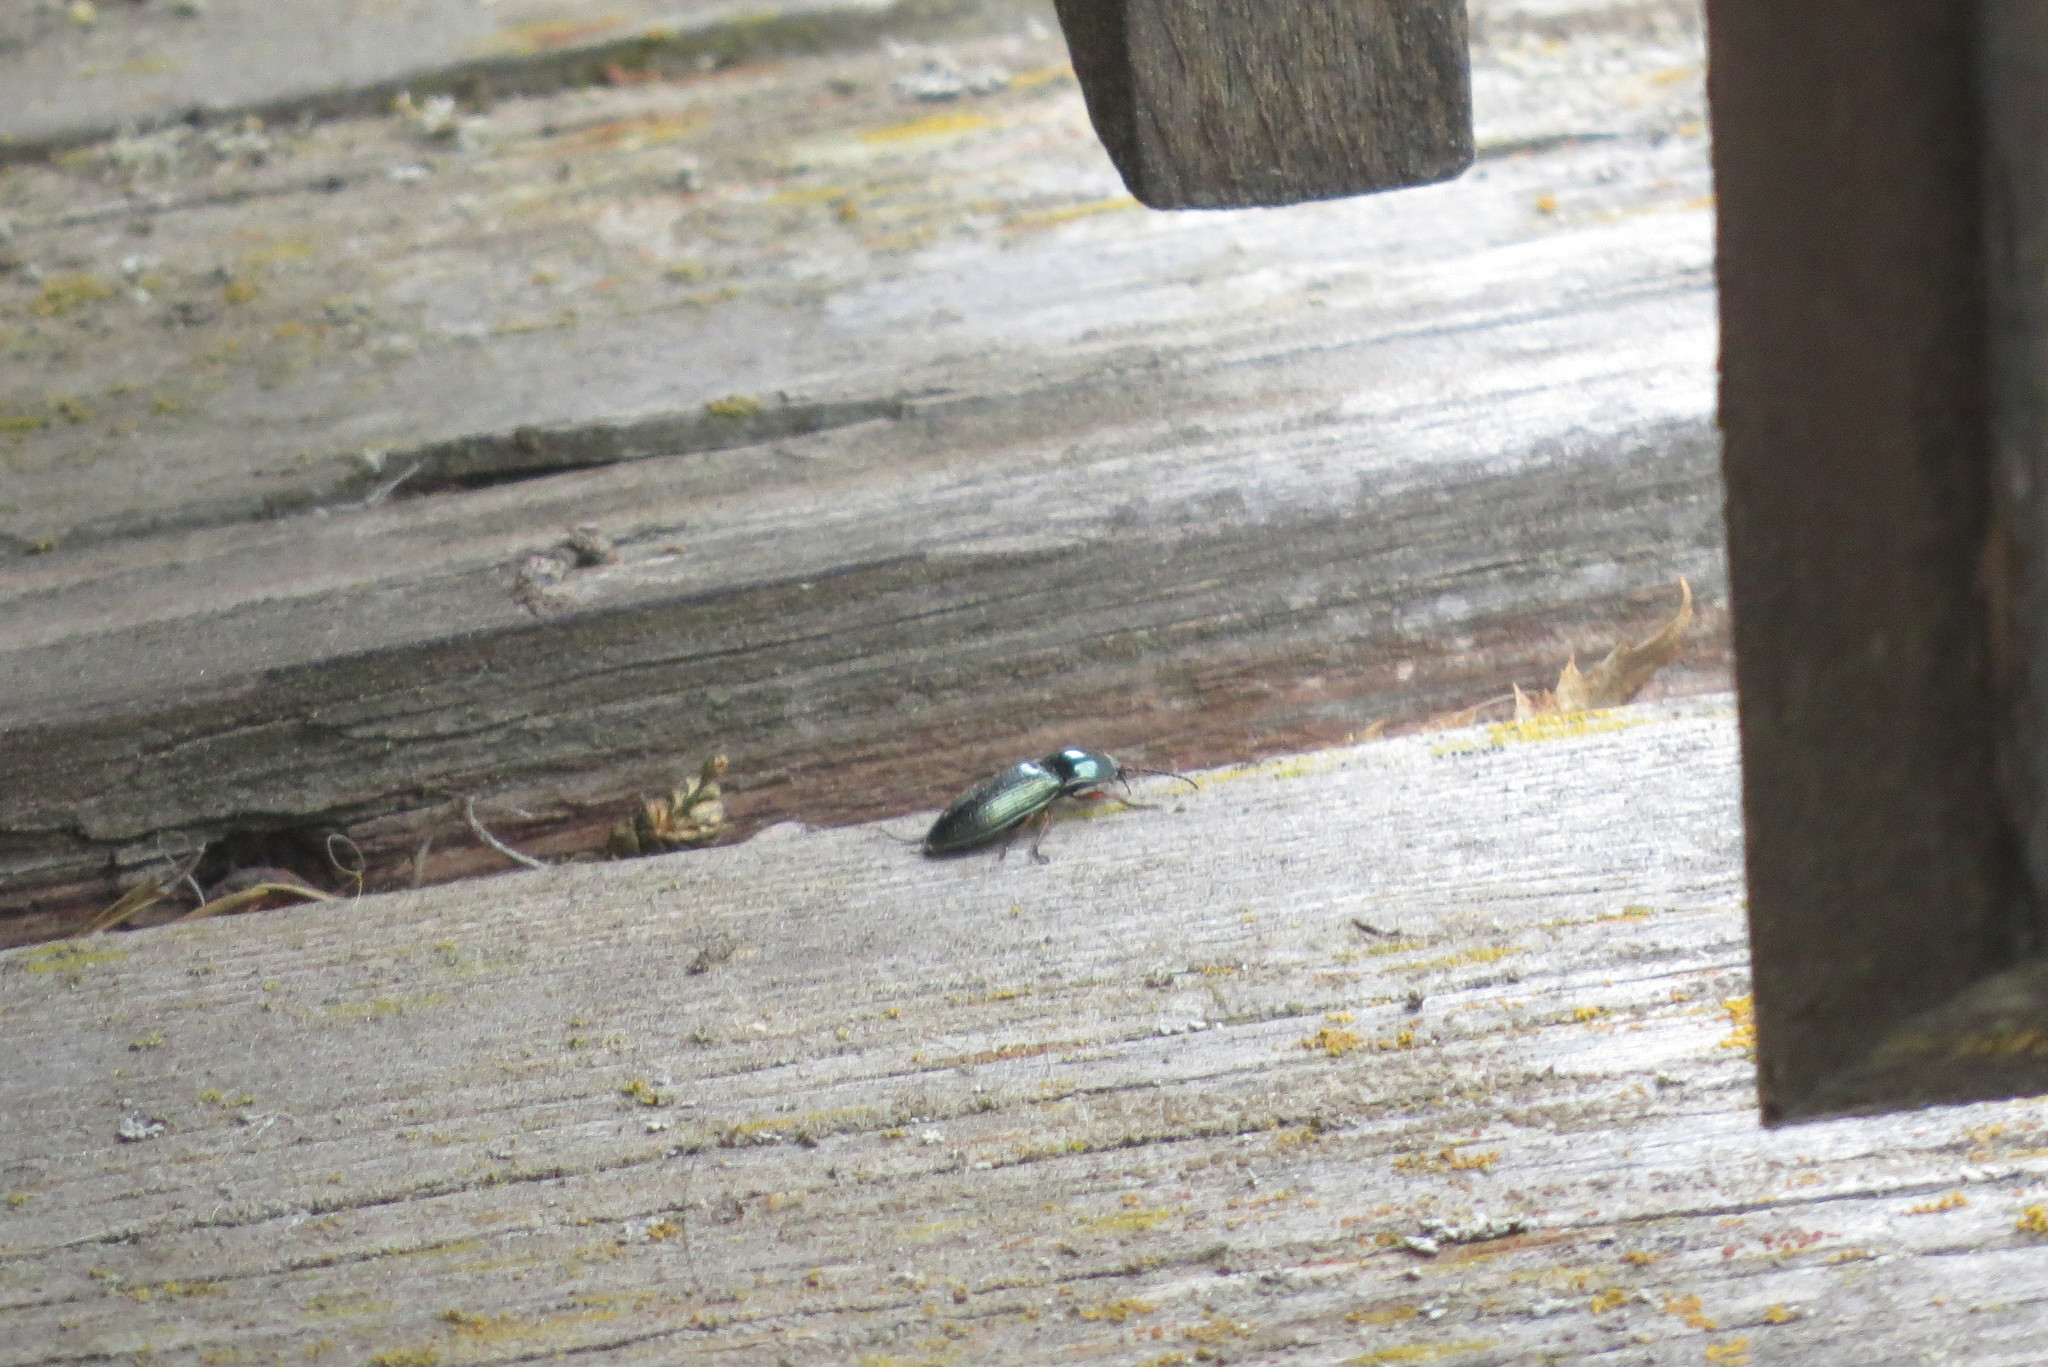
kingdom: Animalia
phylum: Arthropoda
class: Insecta
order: Coleoptera
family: Elateridae
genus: Selatosomus
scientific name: Selatosomus aeneus
